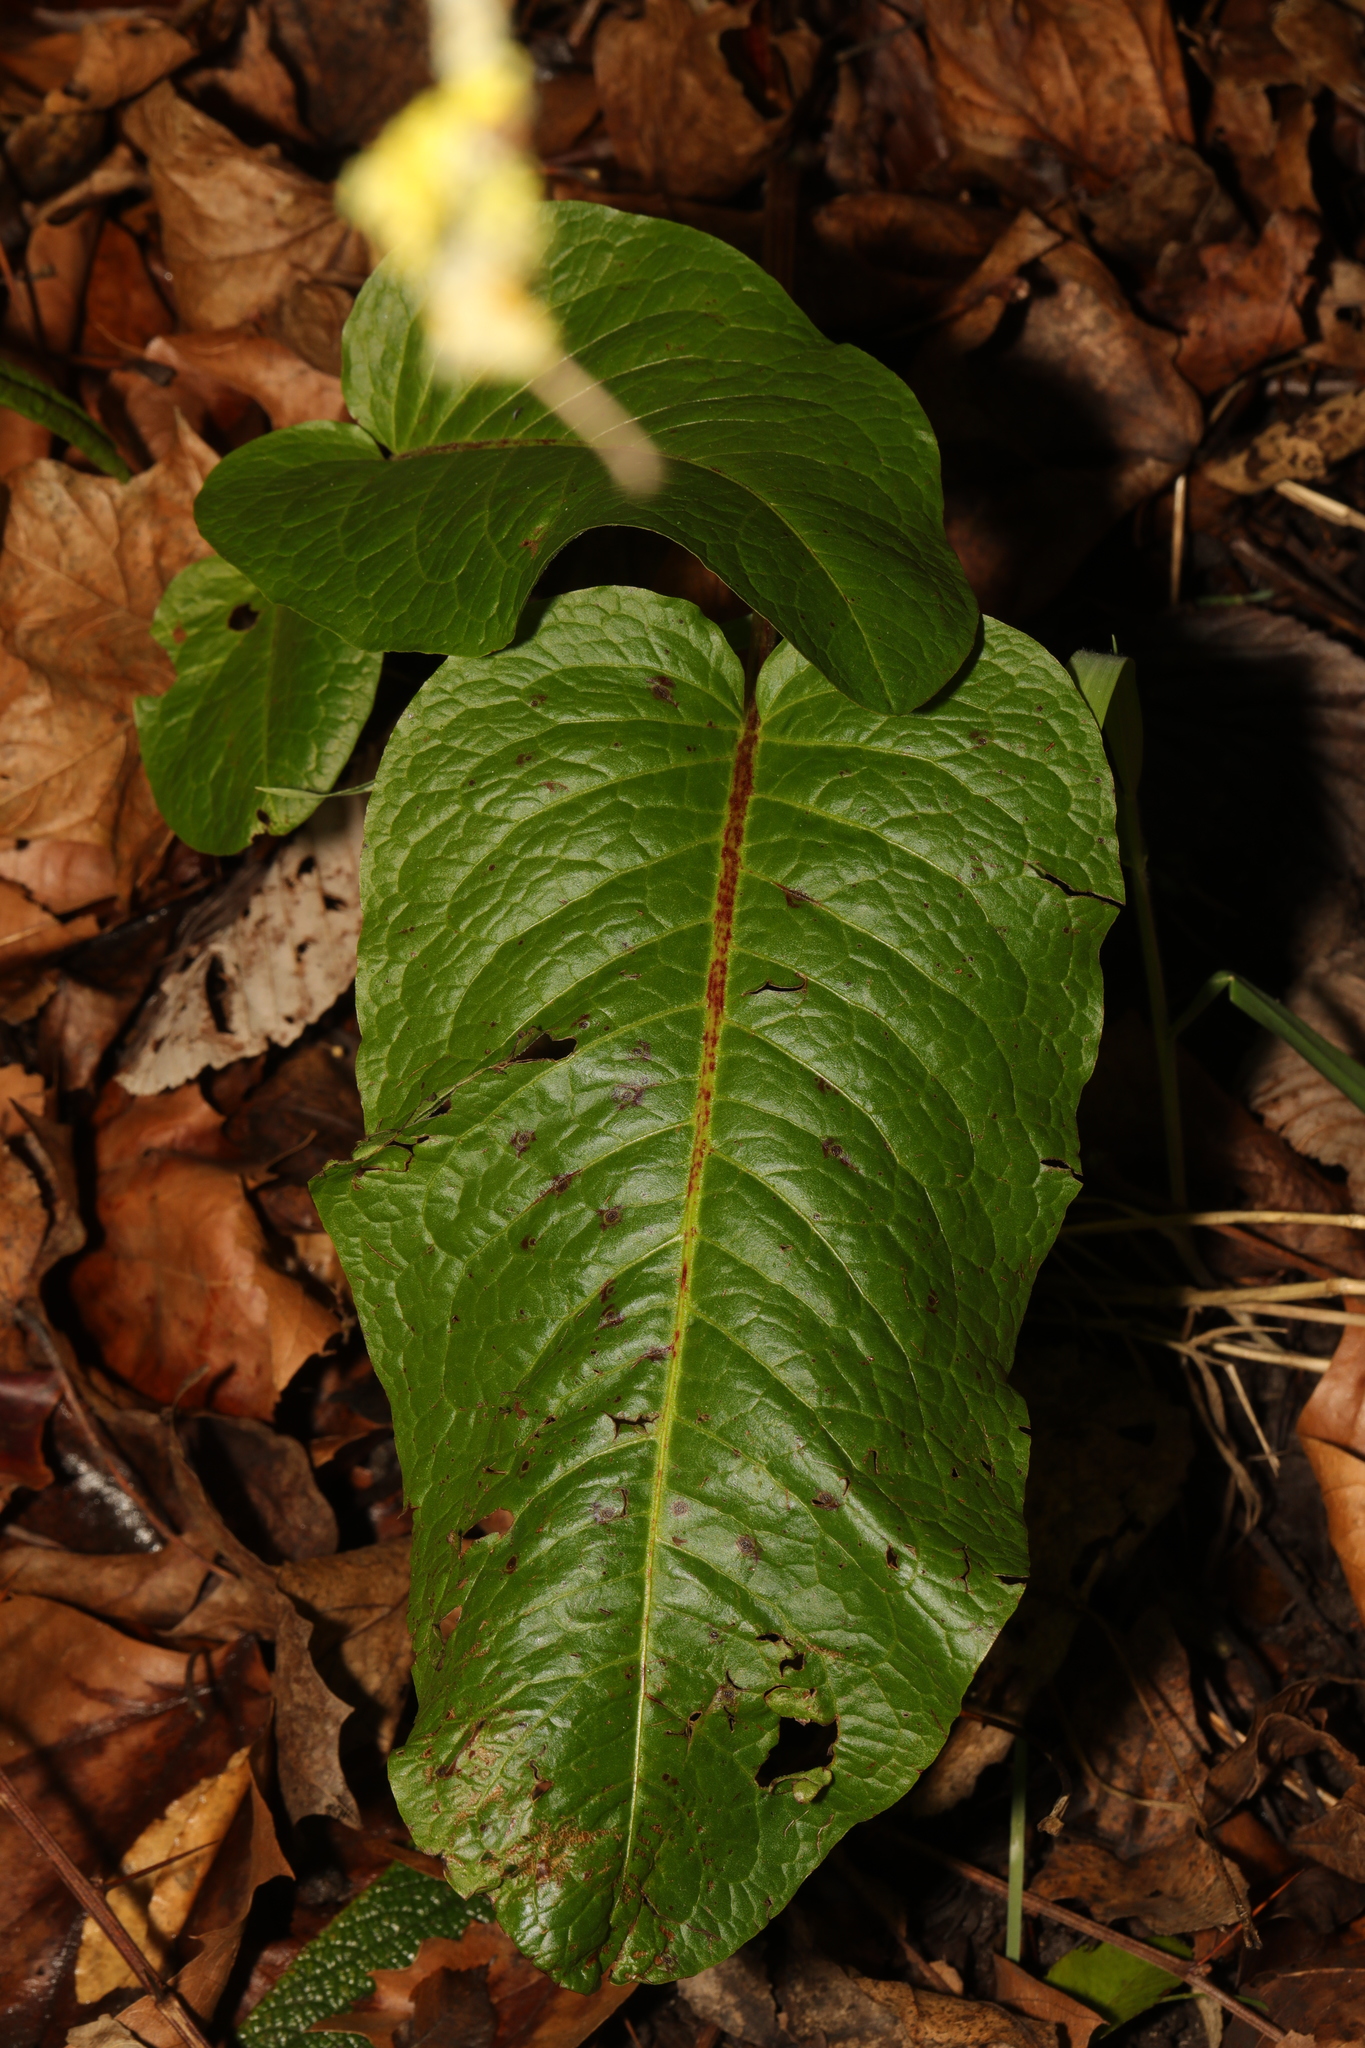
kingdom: Plantae
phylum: Tracheophyta
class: Magnoliopsida
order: Caryophyllales
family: Polygonaceae
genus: Rumex
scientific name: Rumex obtusifolius
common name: Bitter dock
